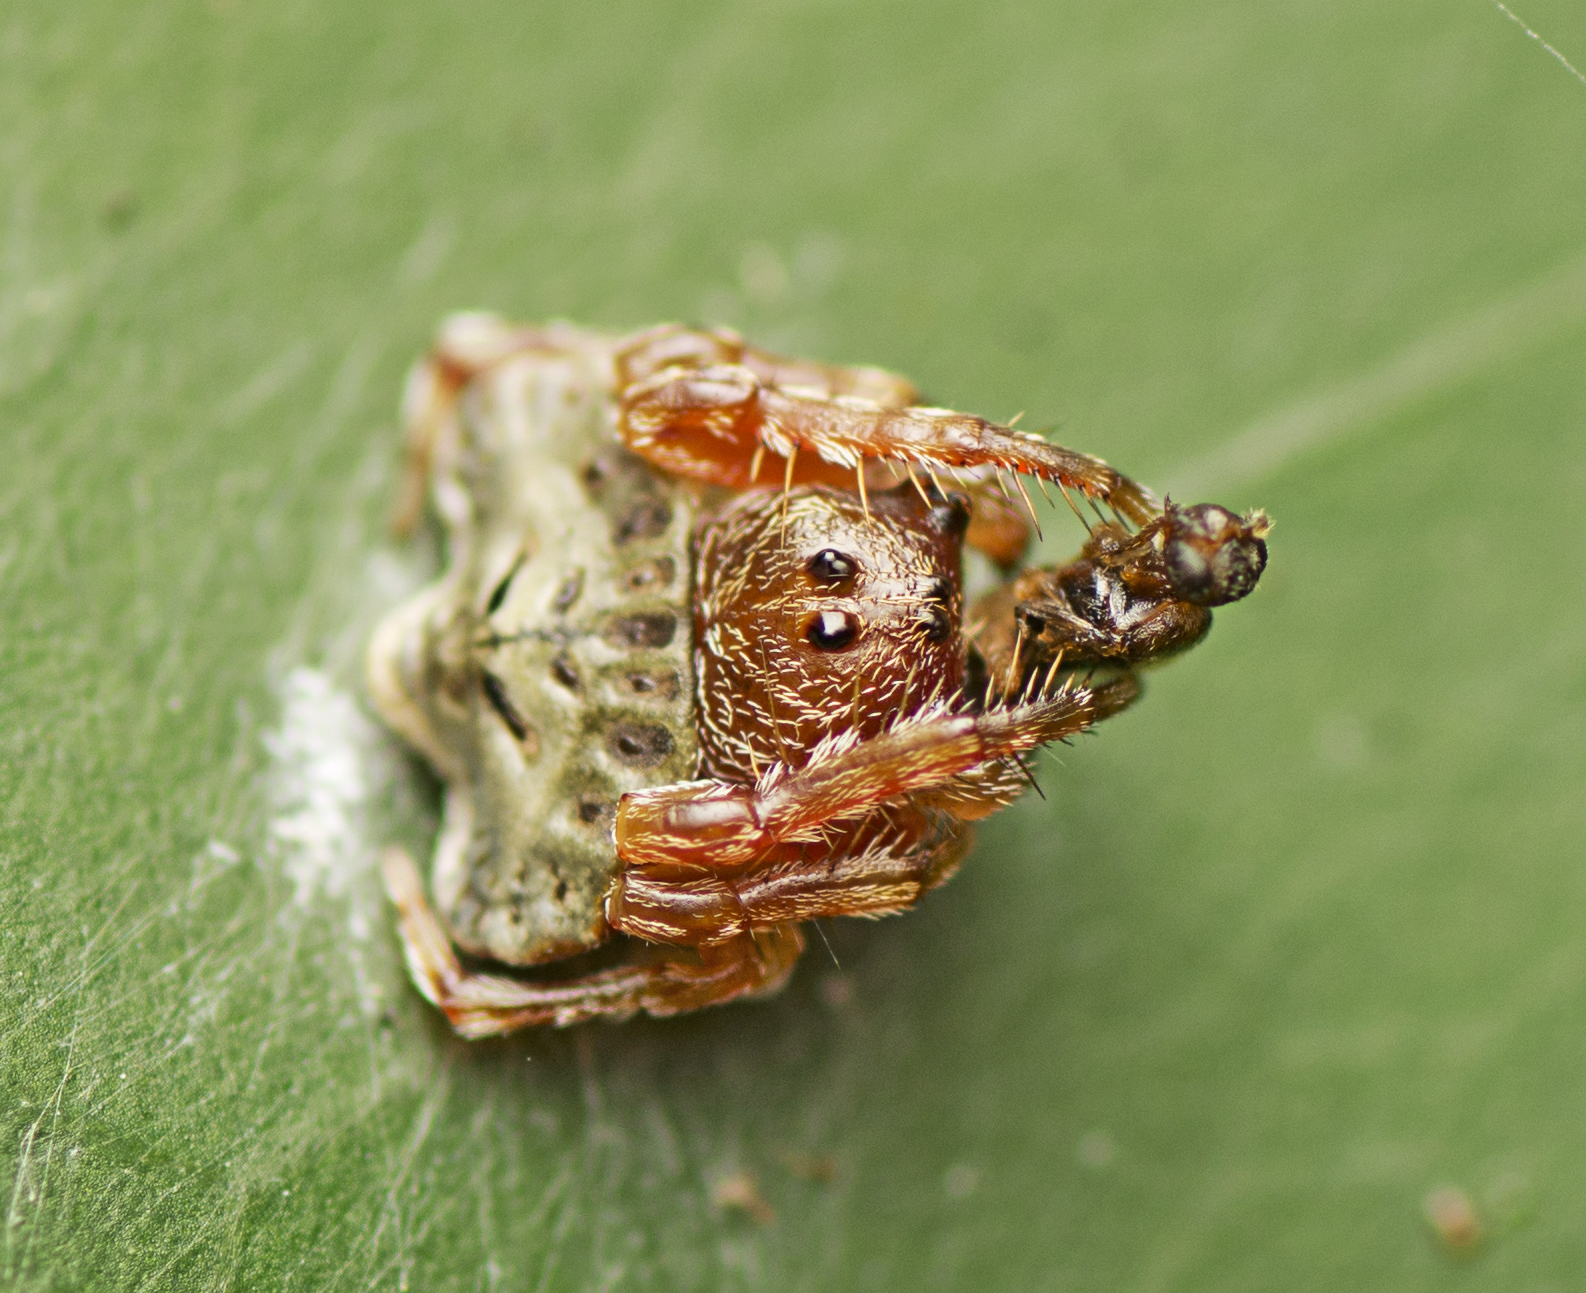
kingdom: Animalia
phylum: Arthropoda
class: Arachnida
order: Araneae
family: Arkyidae
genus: Arkys
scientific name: Arkys speechleyi
